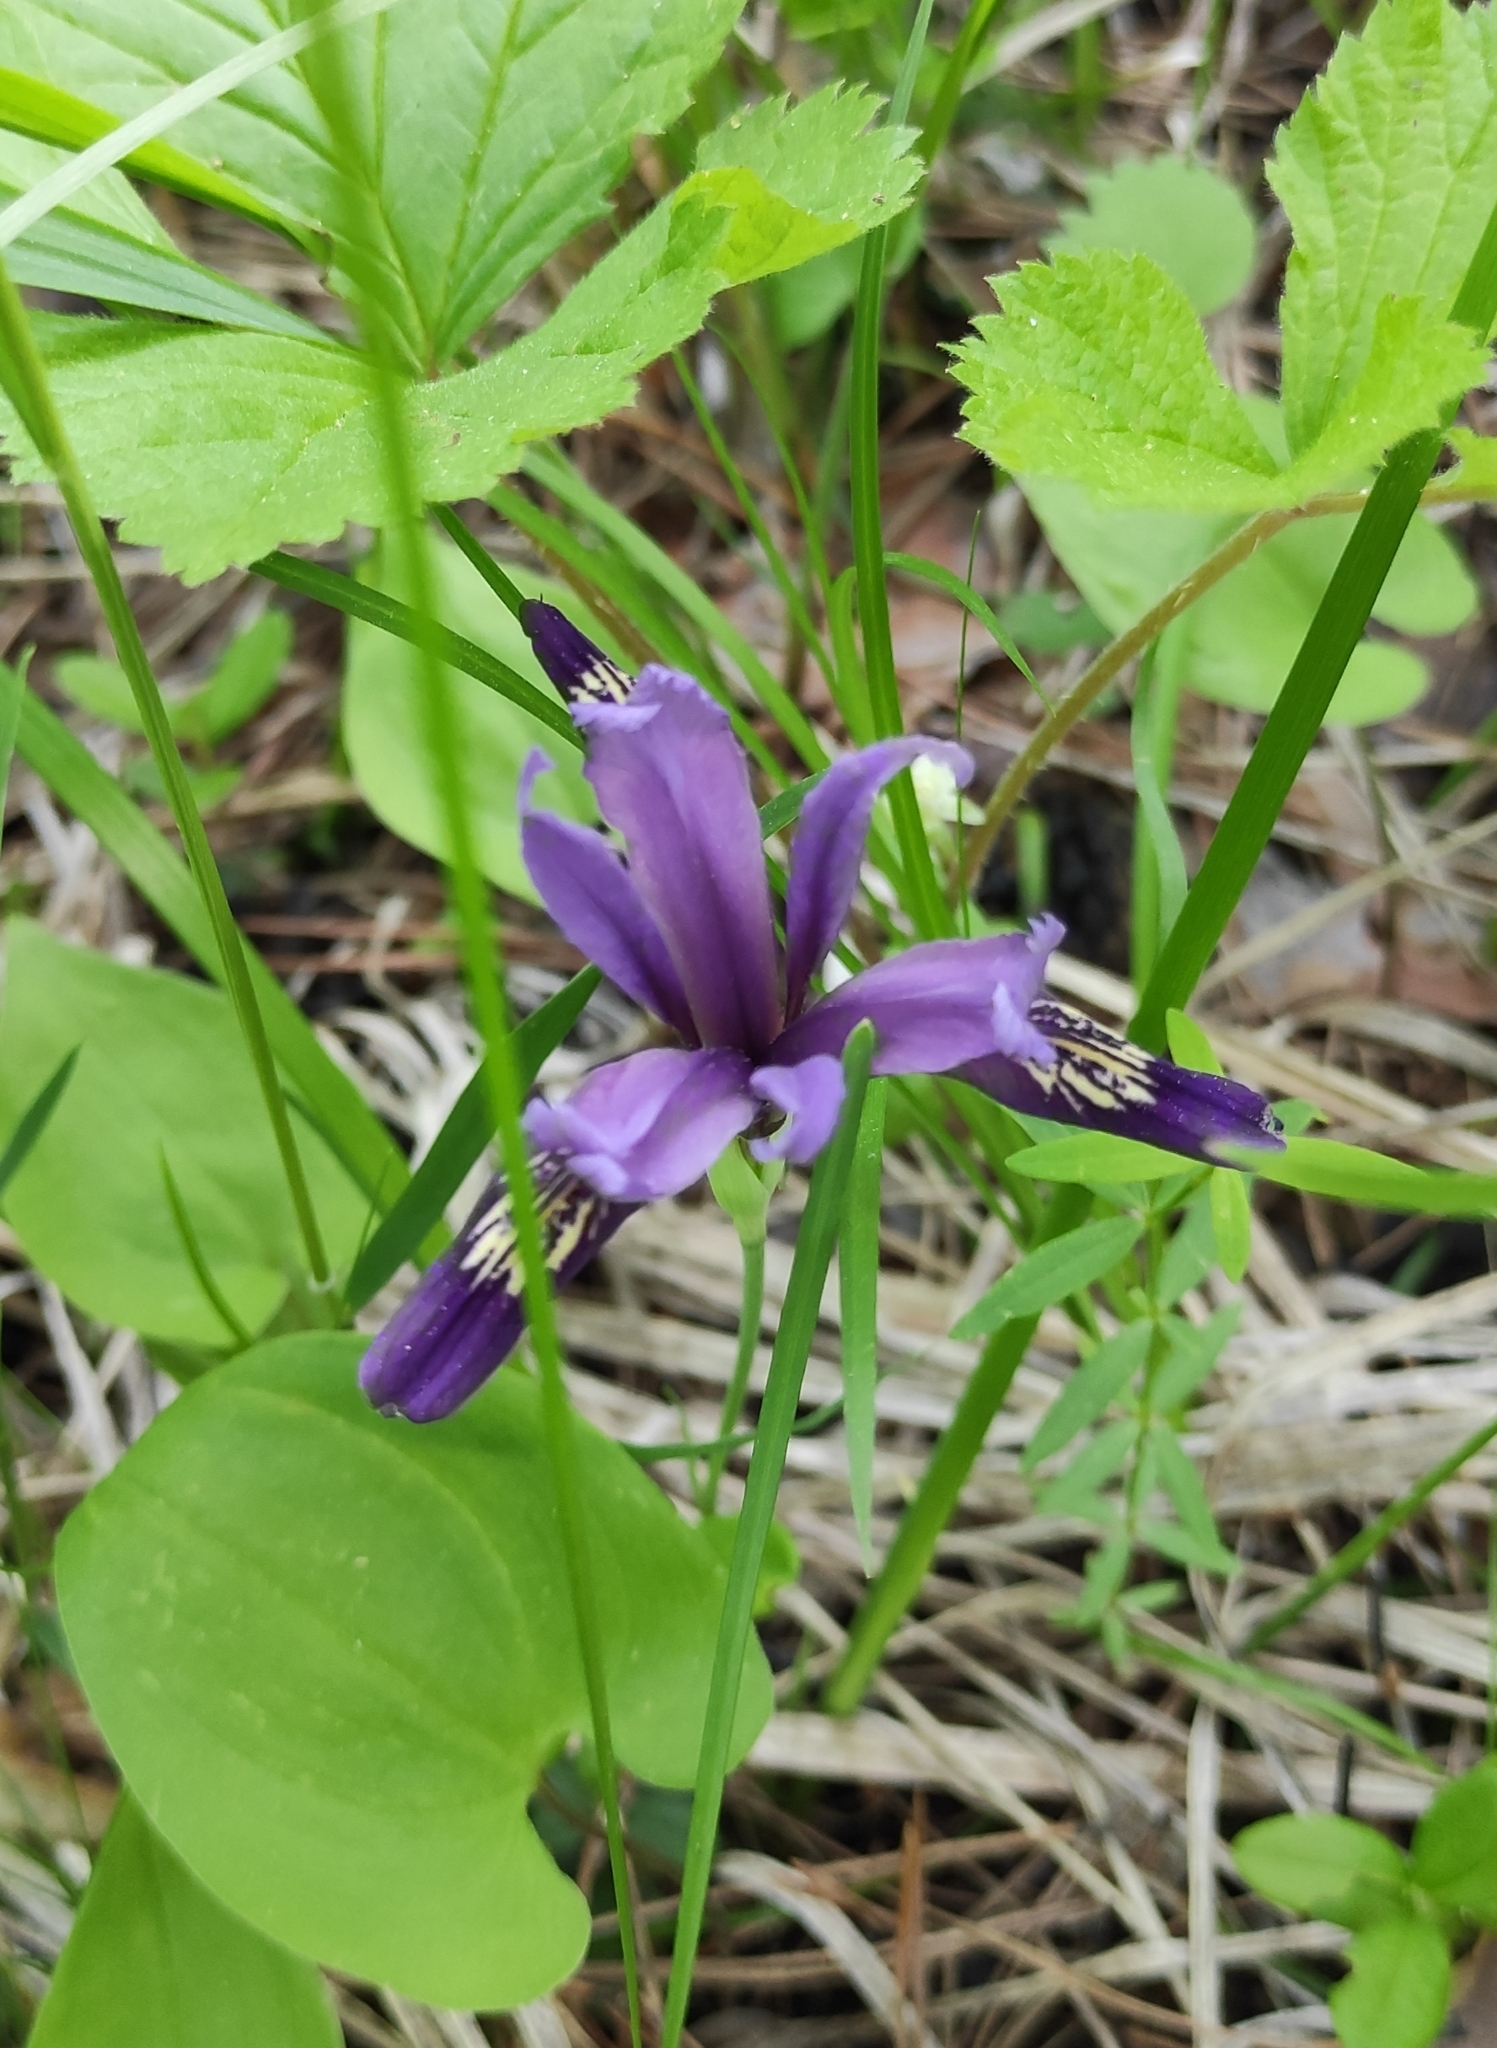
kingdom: Plantae
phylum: Tracheophyta
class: Liliopsida
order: Asparagales
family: Iridaceae
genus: Iris
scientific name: Iris ruthenica
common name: Purple-bract iris
